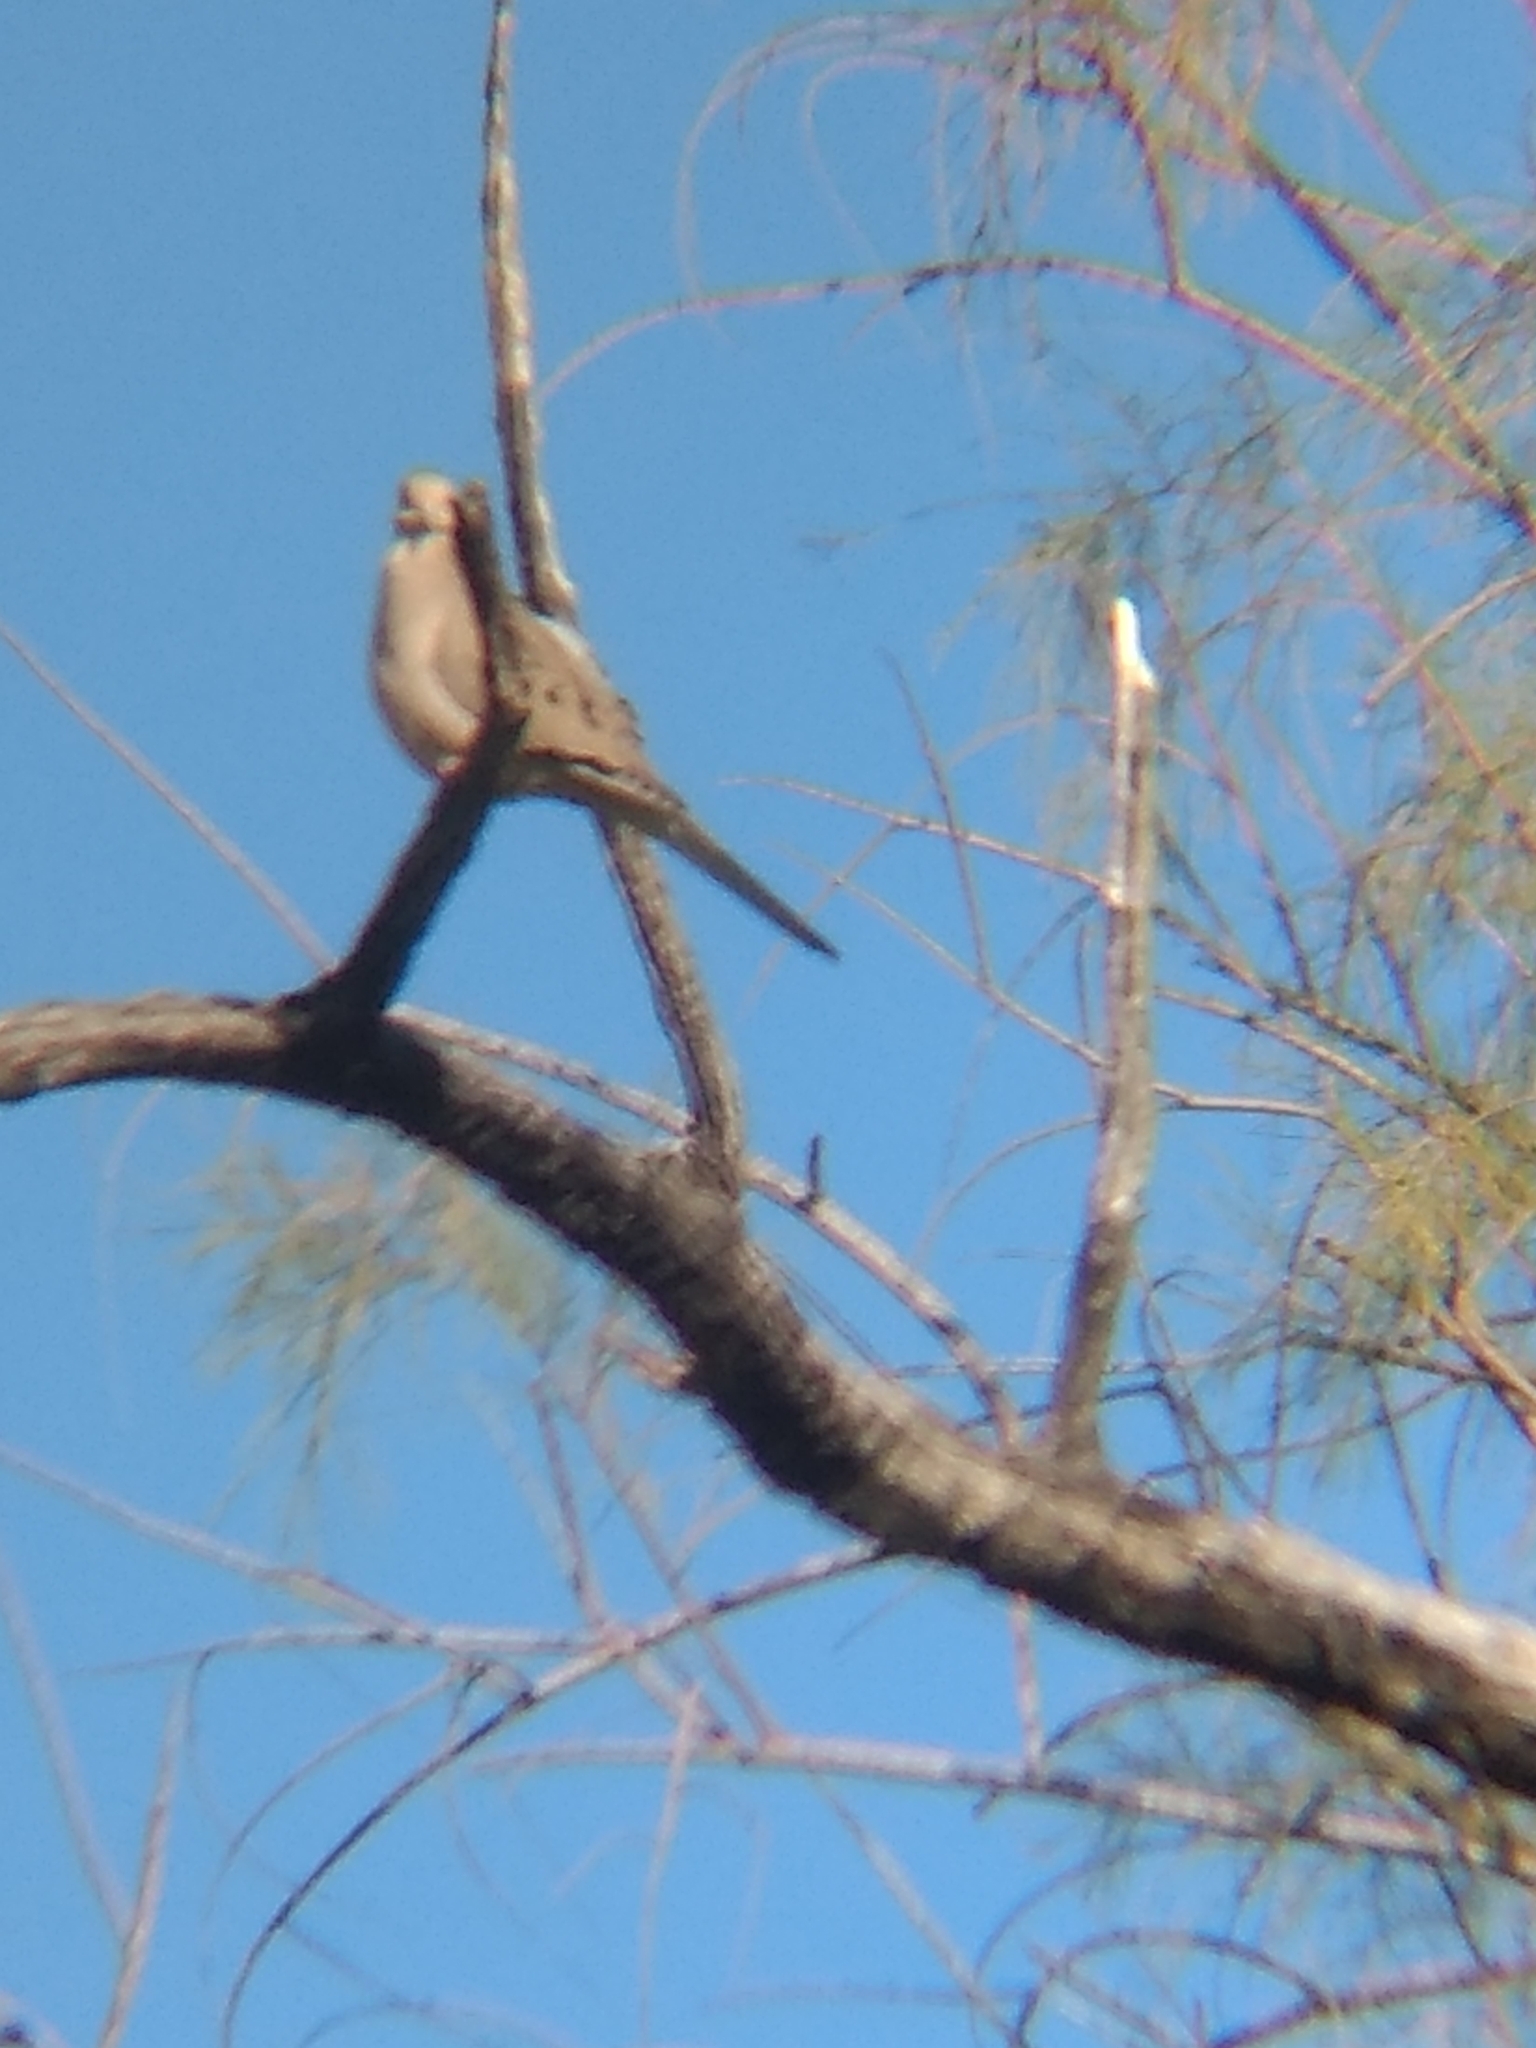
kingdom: Animalia
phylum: Chordata
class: Aves
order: Columbiformes
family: Columbidae
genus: Zenaida
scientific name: Zenaida macroura
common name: Mourning dove
